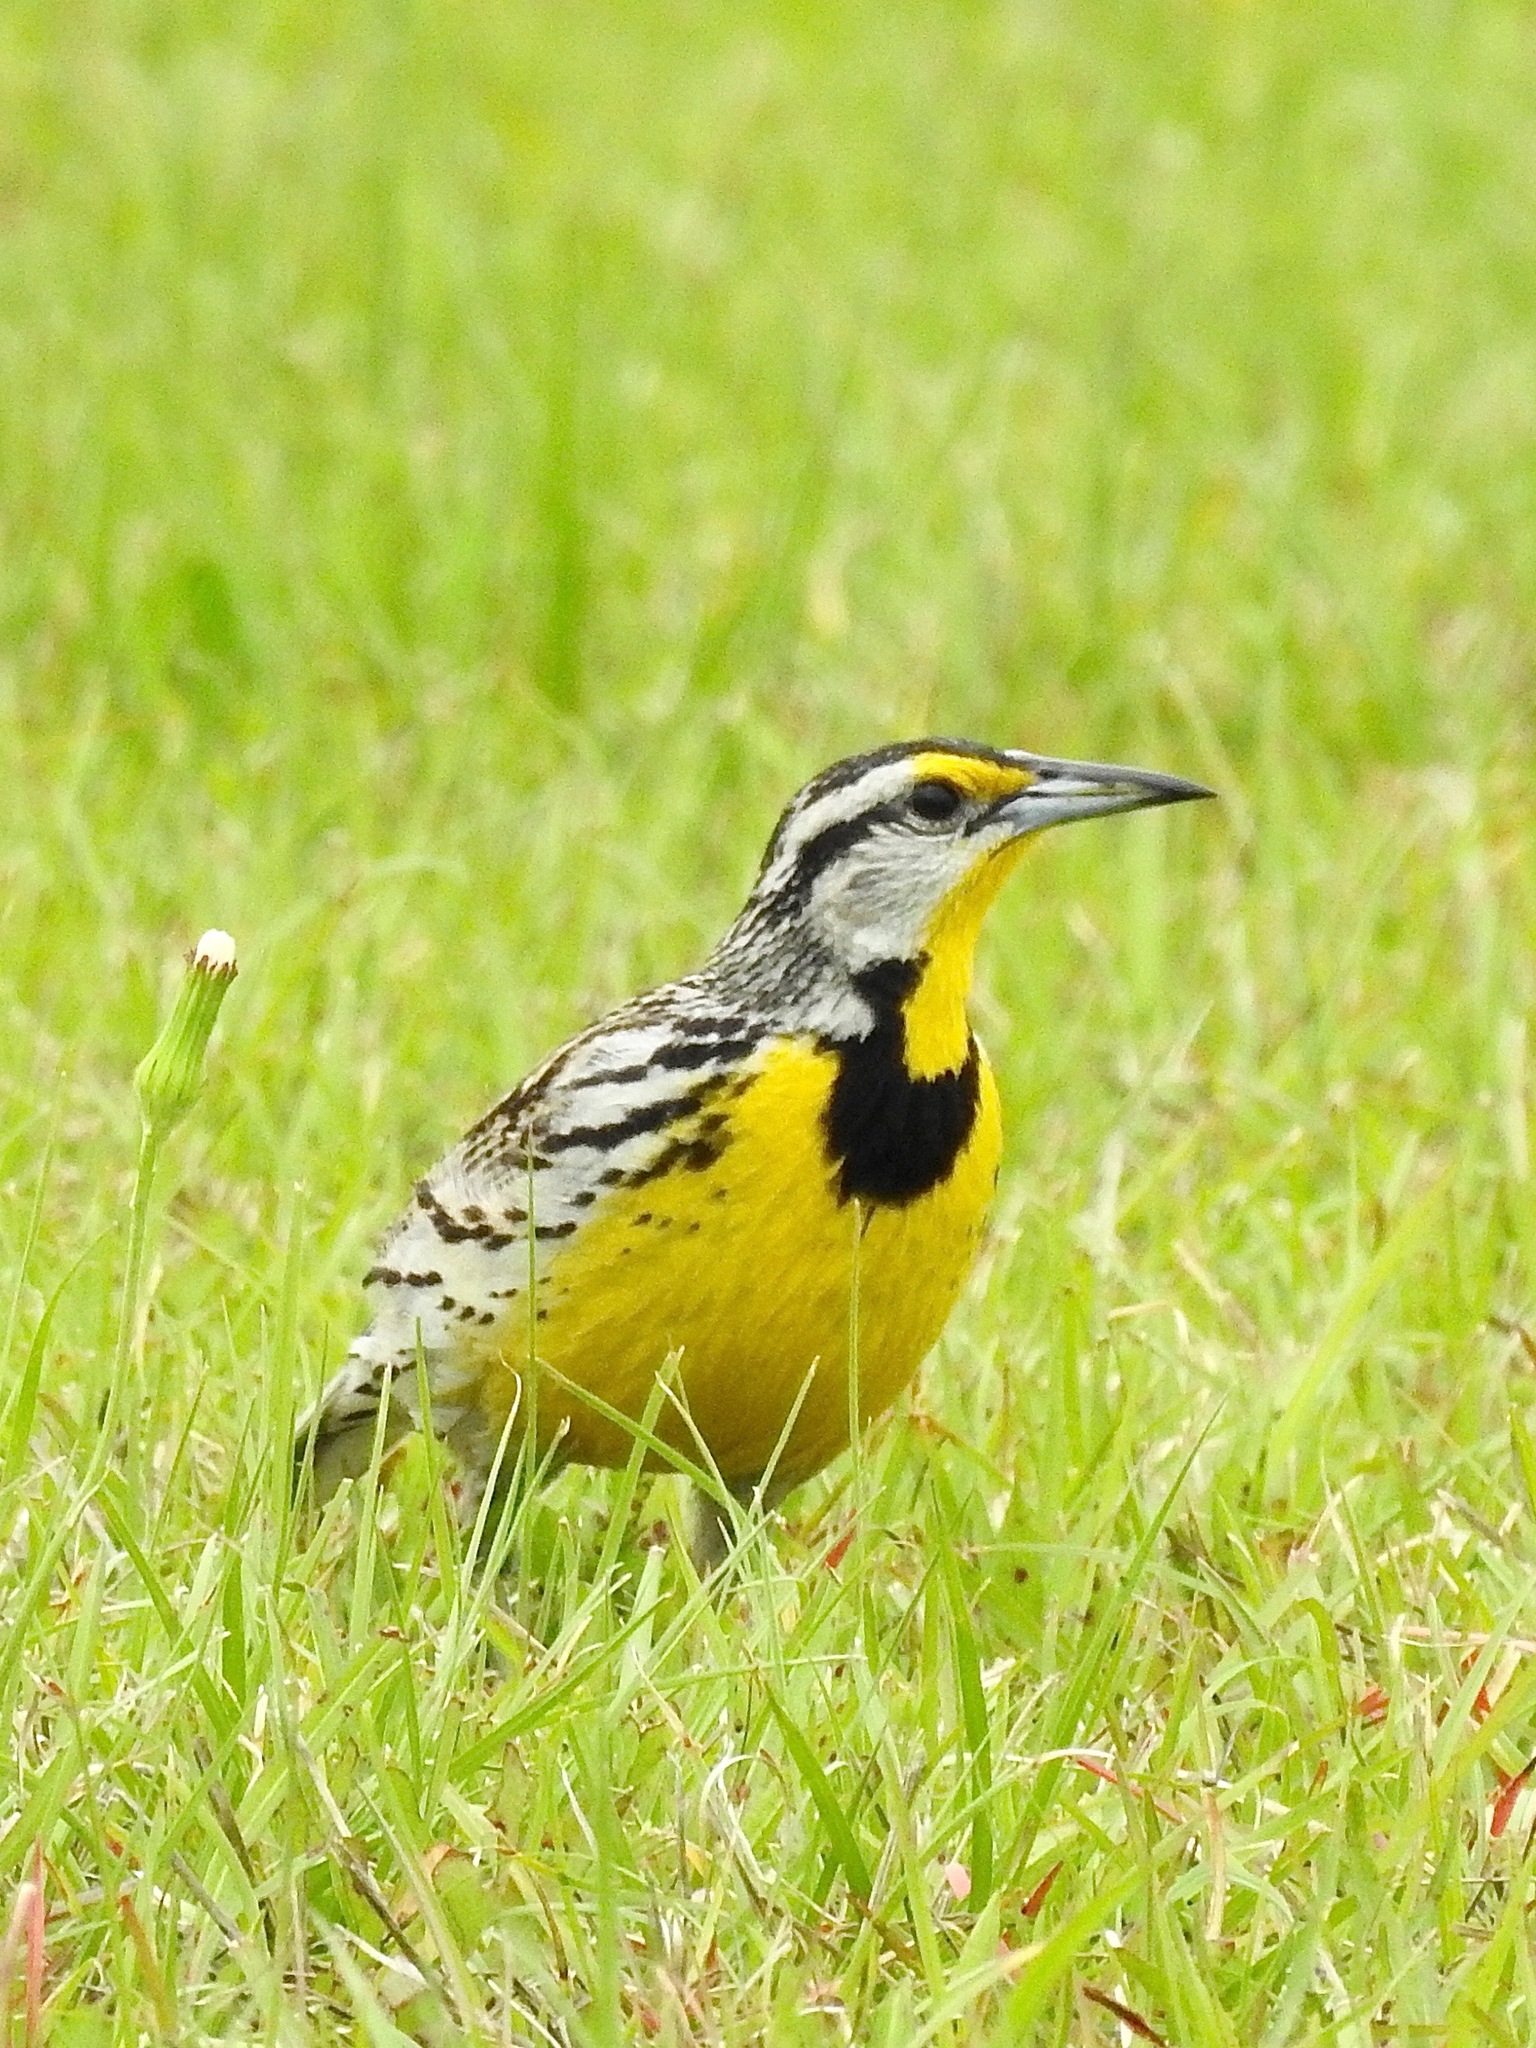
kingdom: Animalia
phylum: Chordata
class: Aves
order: Passeriformes
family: Icteridae
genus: Sturnella
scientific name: Sturnella magna
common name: Eastern meadowlark
